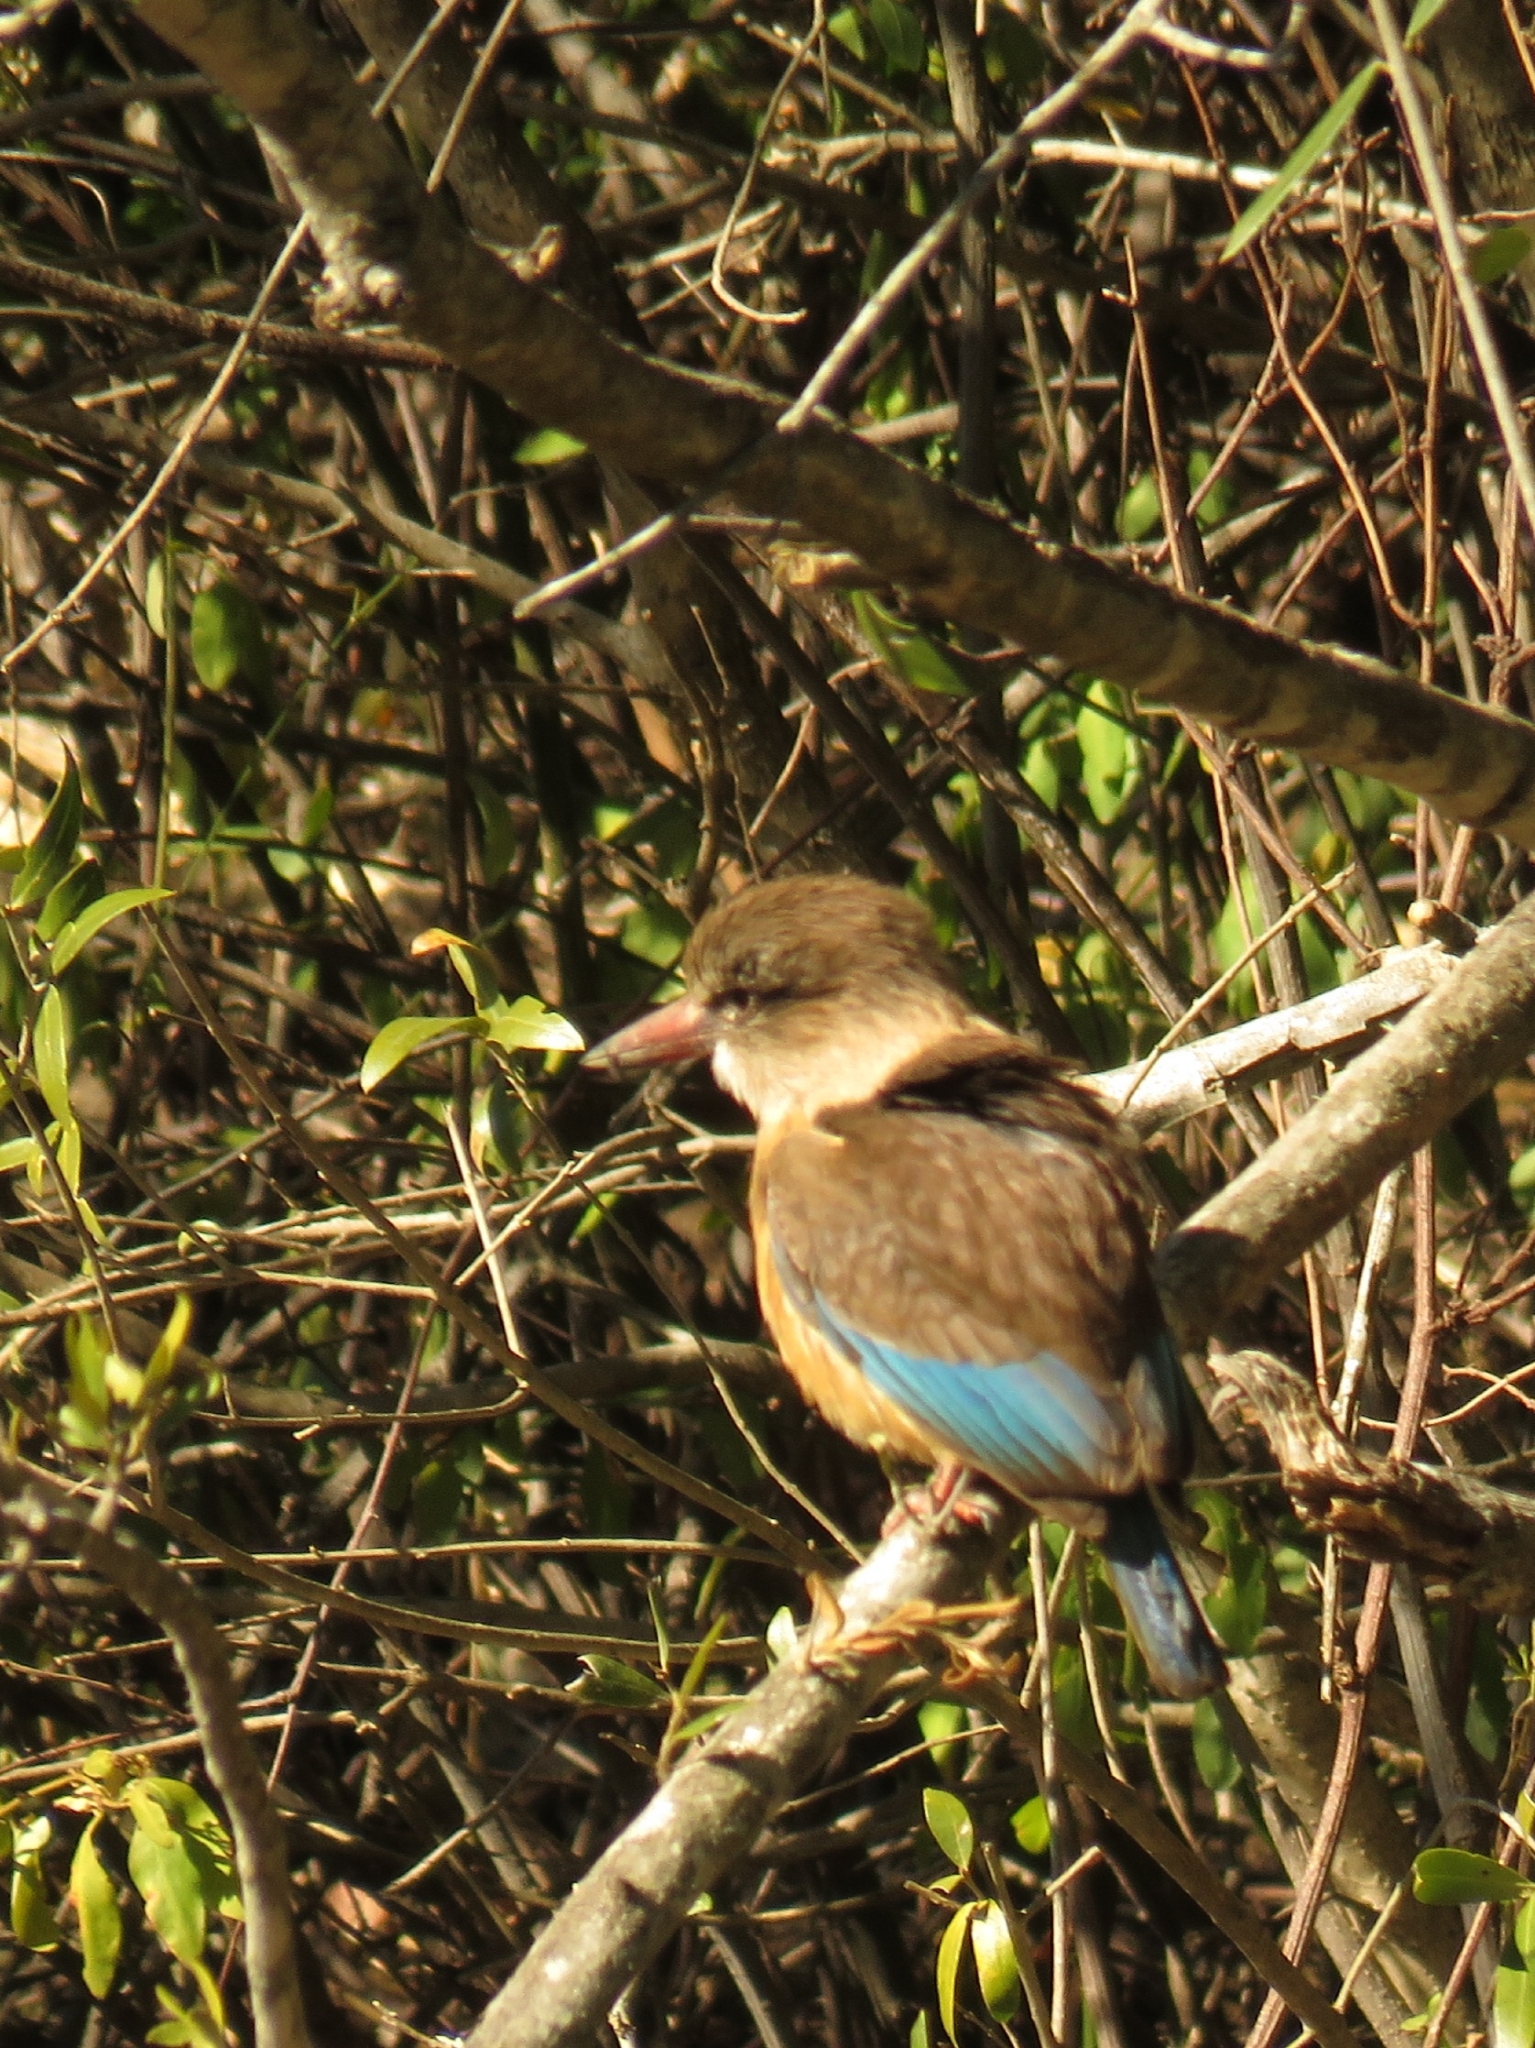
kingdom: Animalia
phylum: Chordata
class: Aves
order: Coraciiformes
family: Alcedinidae
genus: Halcyon
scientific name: Halcyon albiventris
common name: Brown-hooded kingfisher
